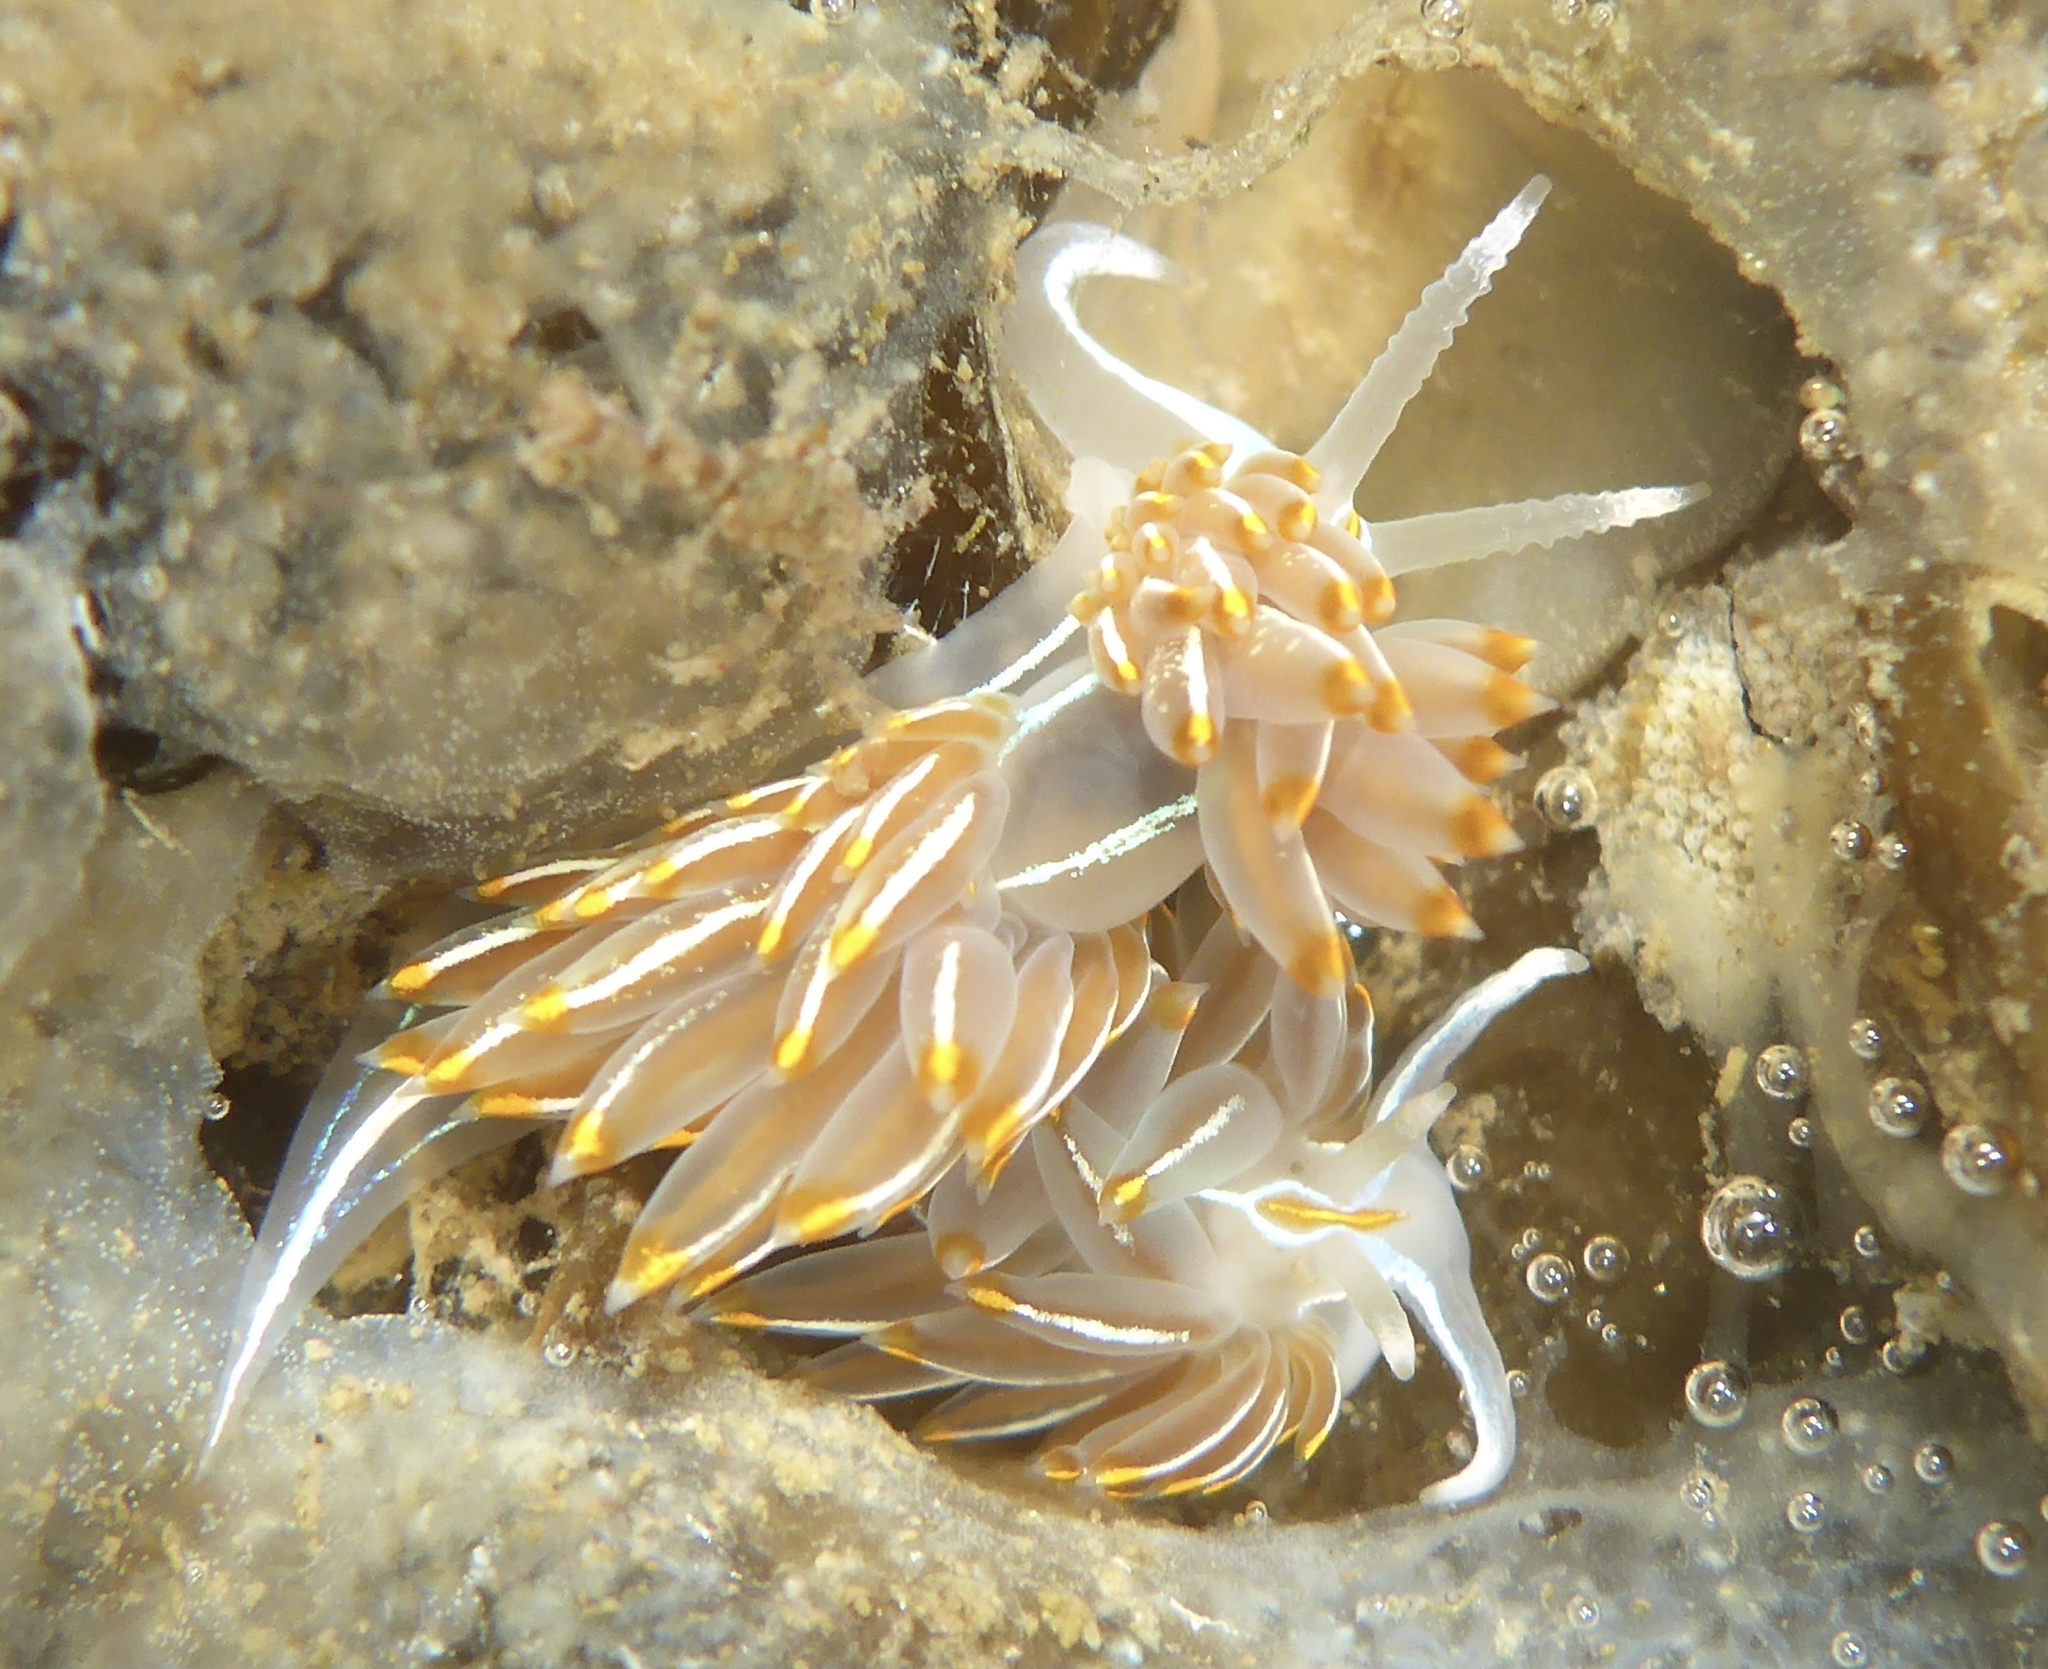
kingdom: Animalia
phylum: Mollusca
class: Gastropoda
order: Nudibranchia
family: Myrrhinidae
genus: Hermissenda
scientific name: Hermissenda crassicornis
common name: Hermissenda
